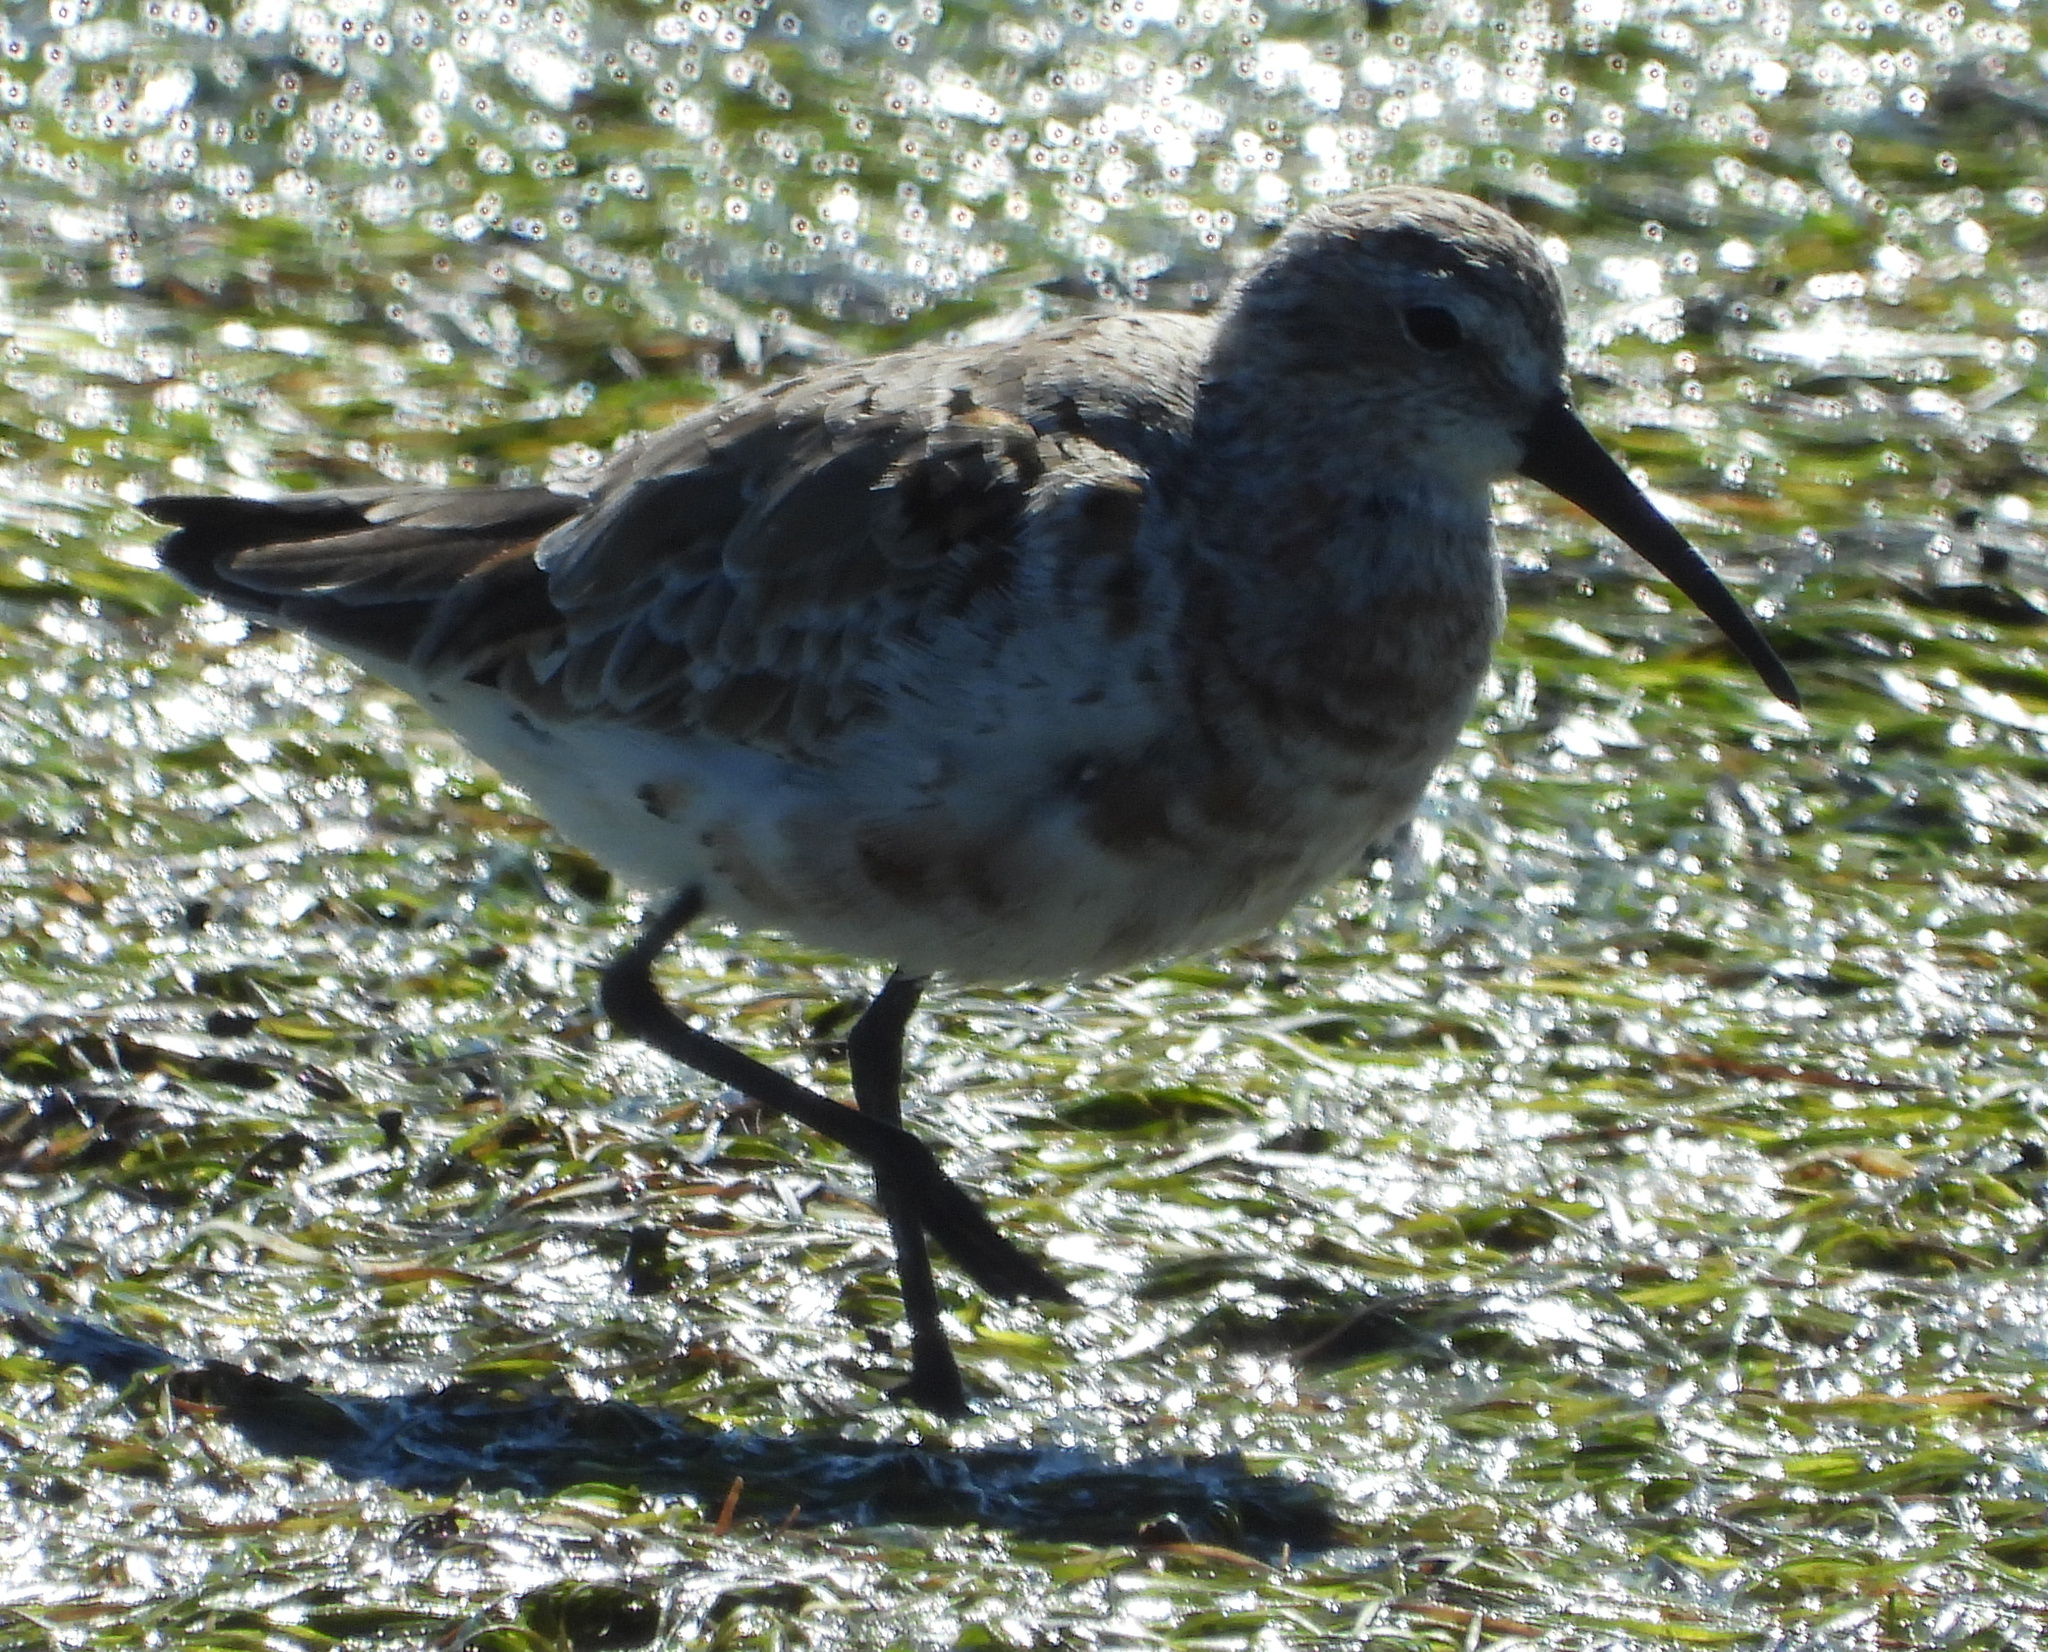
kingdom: Animalia
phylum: Chordata
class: Aves
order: Charadriiformes
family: Scolopacidae
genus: Calidris
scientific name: Calidris ferruginea
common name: Curlew sandpiper
